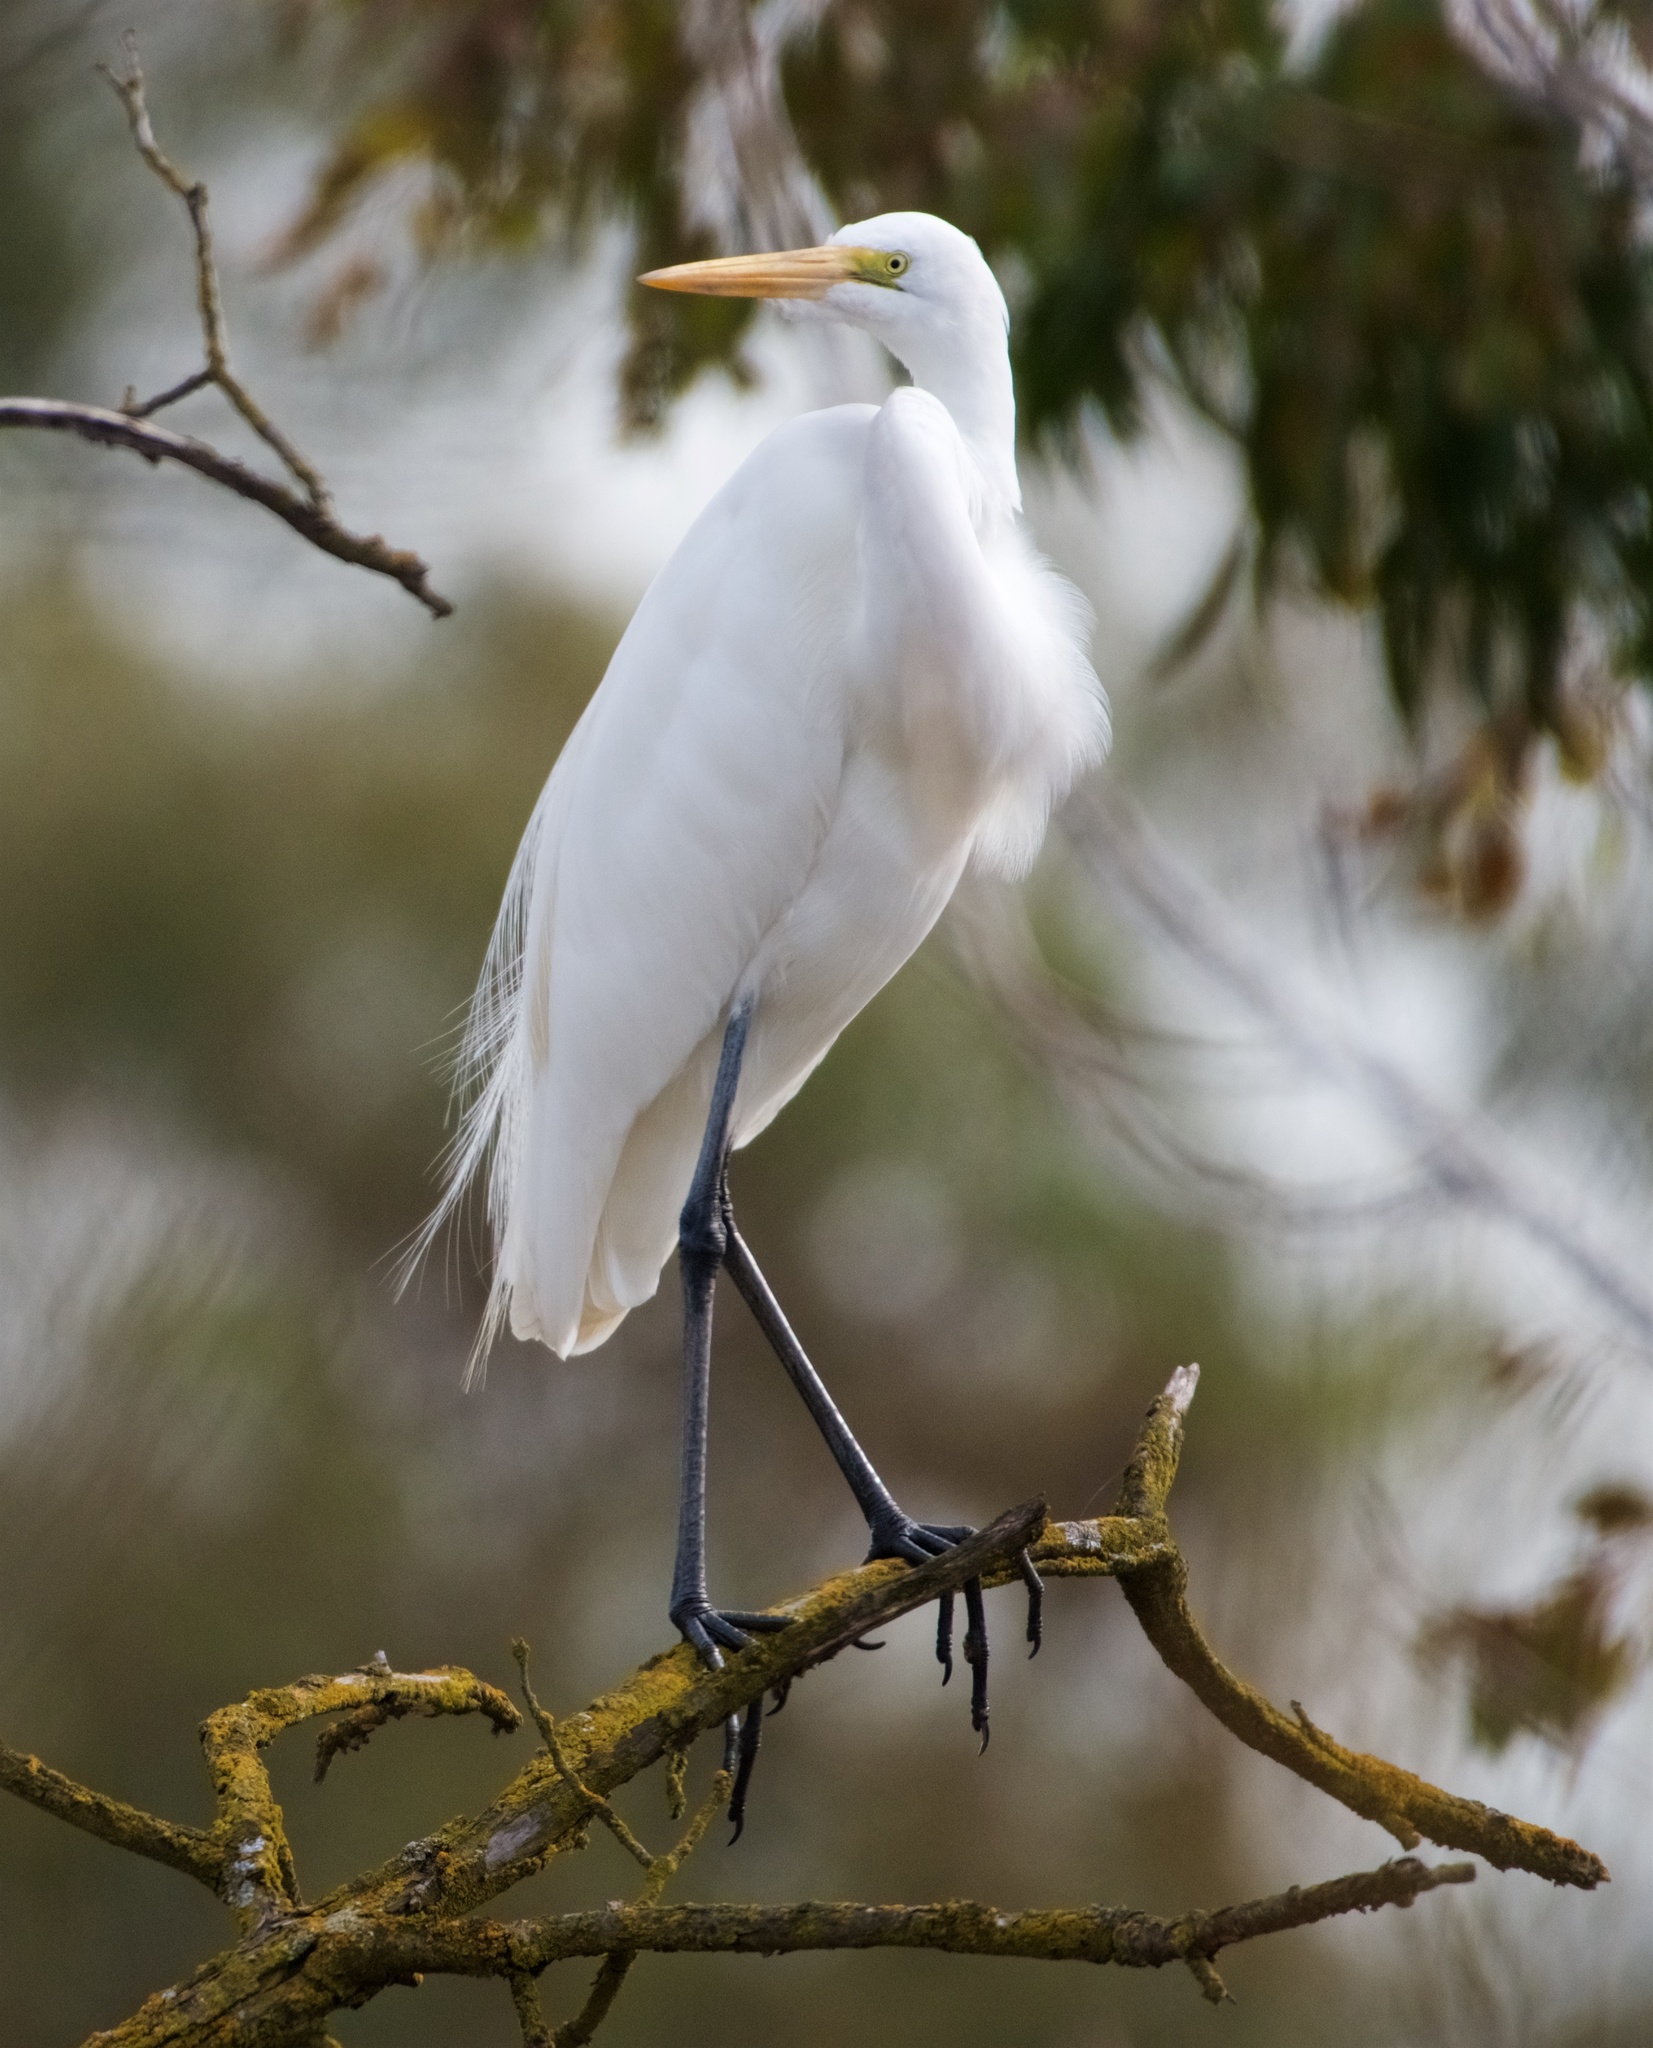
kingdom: Animalia
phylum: Chordata
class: Aves
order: Pelecaniformes
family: Ardeidae
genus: Ardea
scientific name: Ardea alba
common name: Great egret
